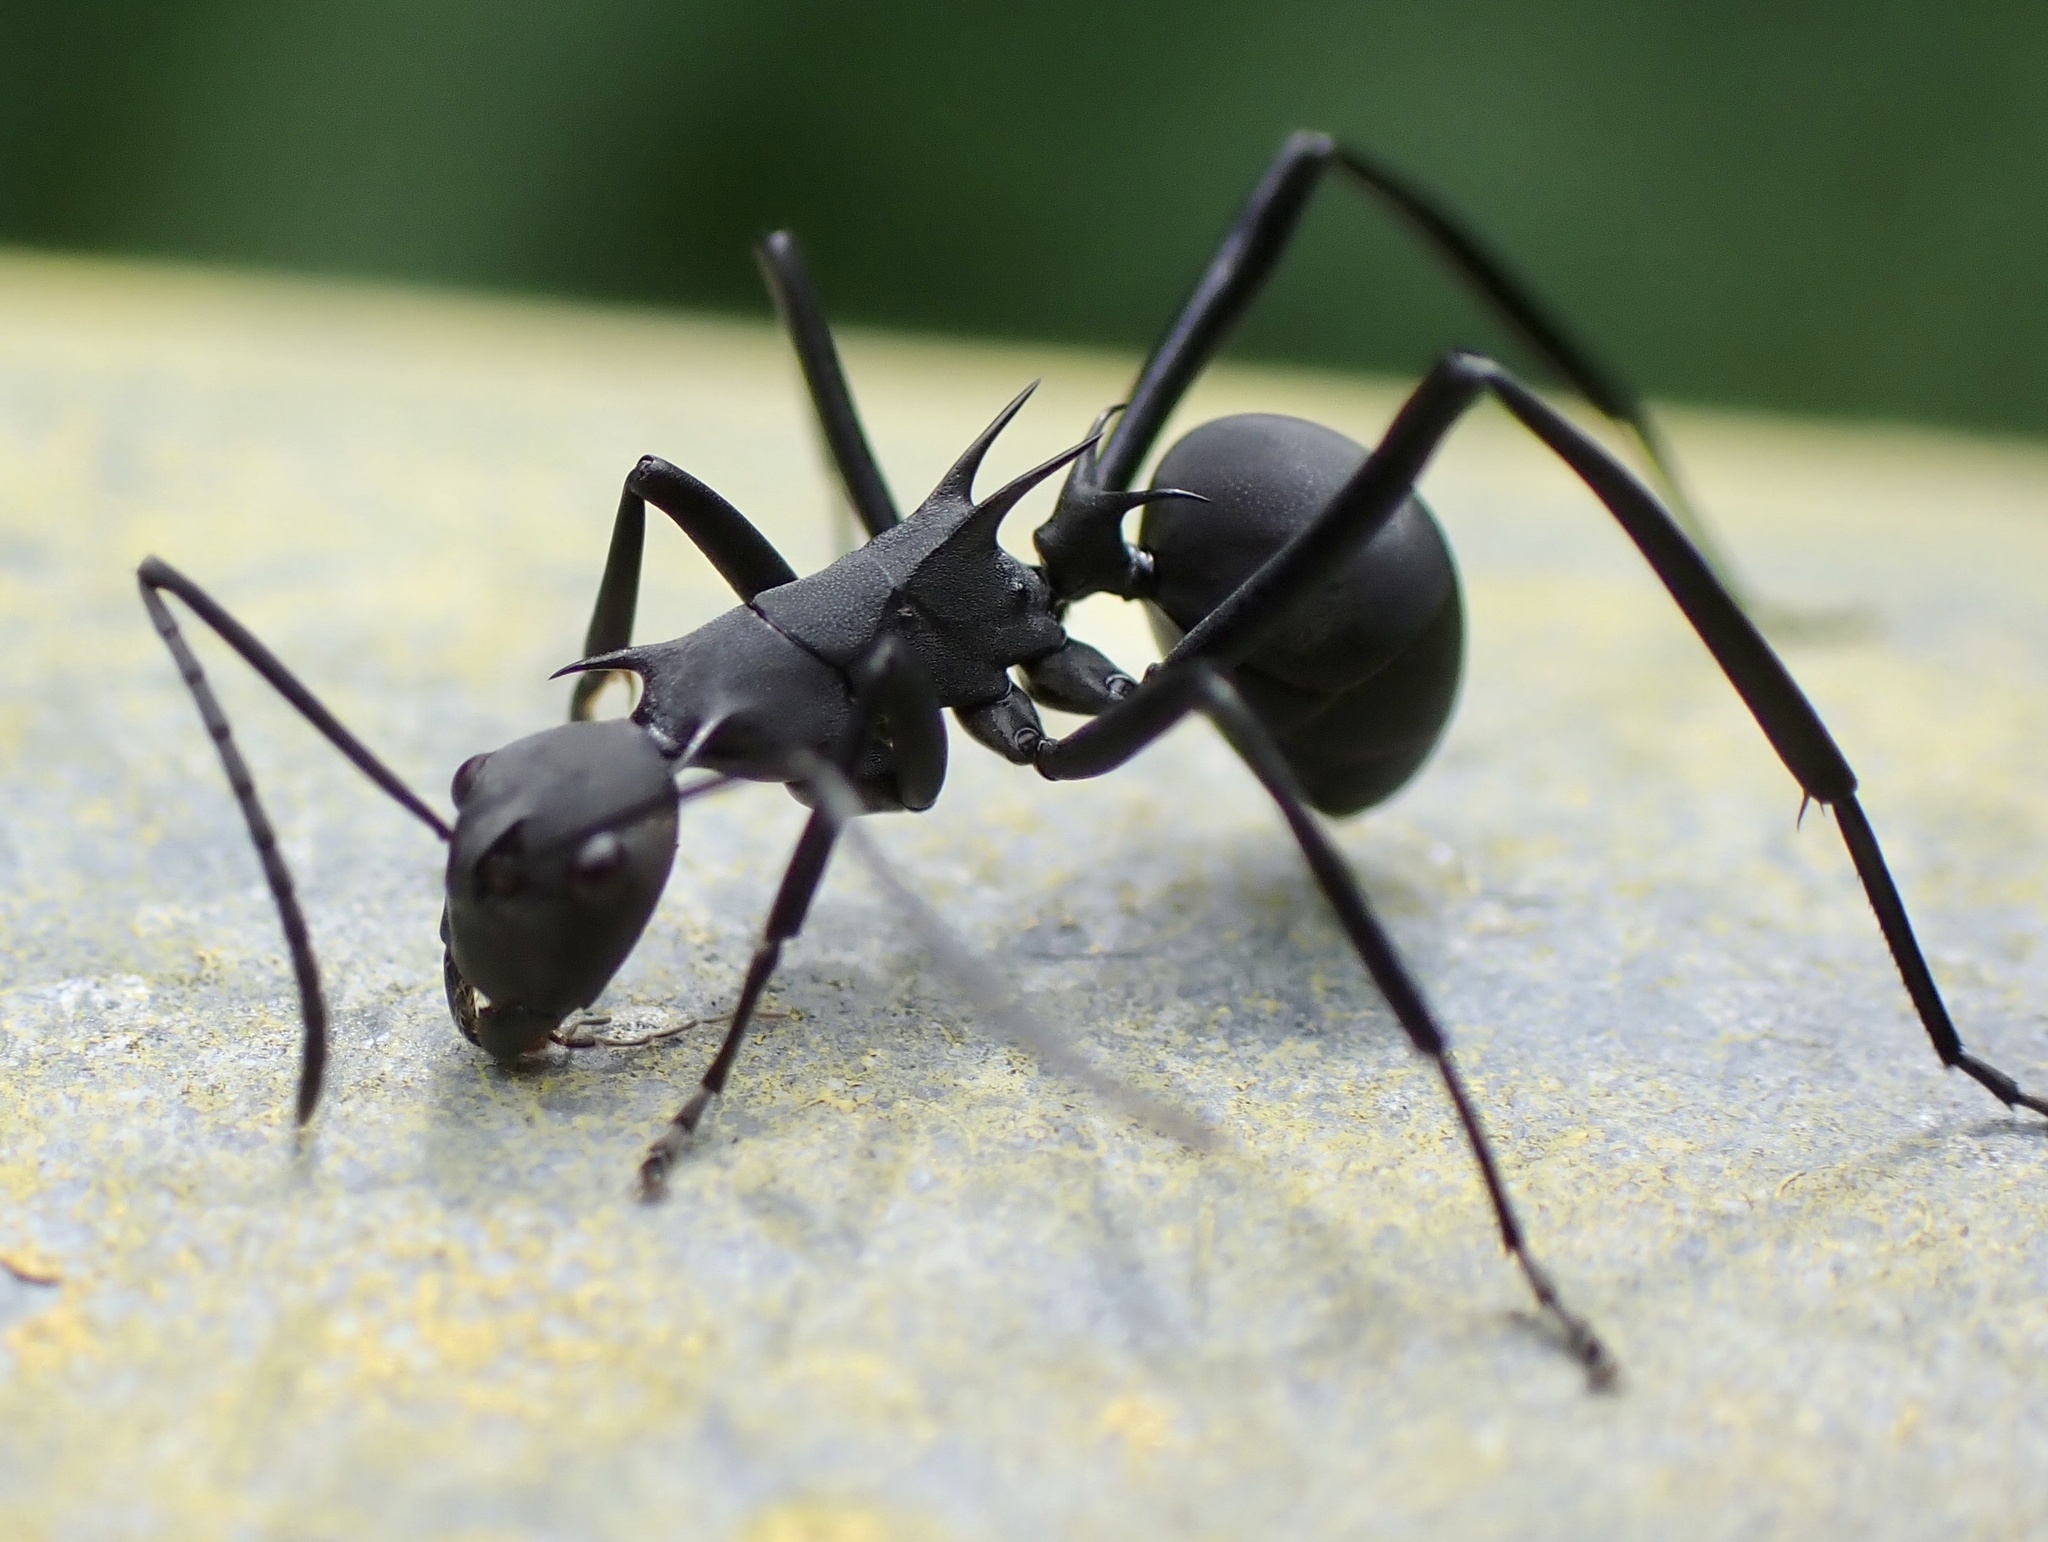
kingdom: Animalia
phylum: Arthropoda
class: Insecta
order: Hymenoptera
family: Formicidae
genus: Polyrhachis
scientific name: Polyrhachis abdominalis
